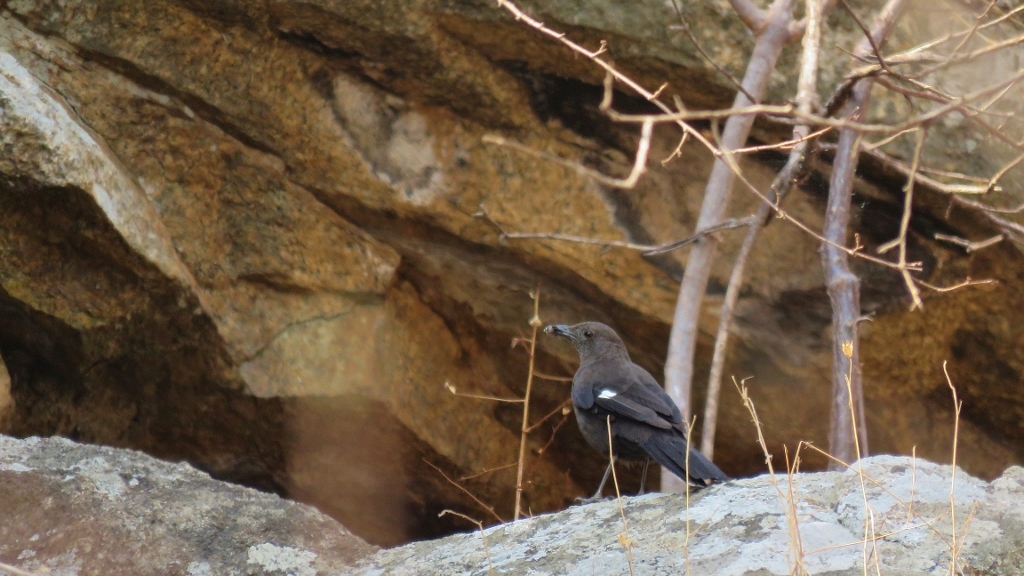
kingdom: Animalia
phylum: Chordata
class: Aves
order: Passeriformes
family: Muscicapidae
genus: Pinarornis
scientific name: Pinarornis plumosus
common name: Boulder chat
